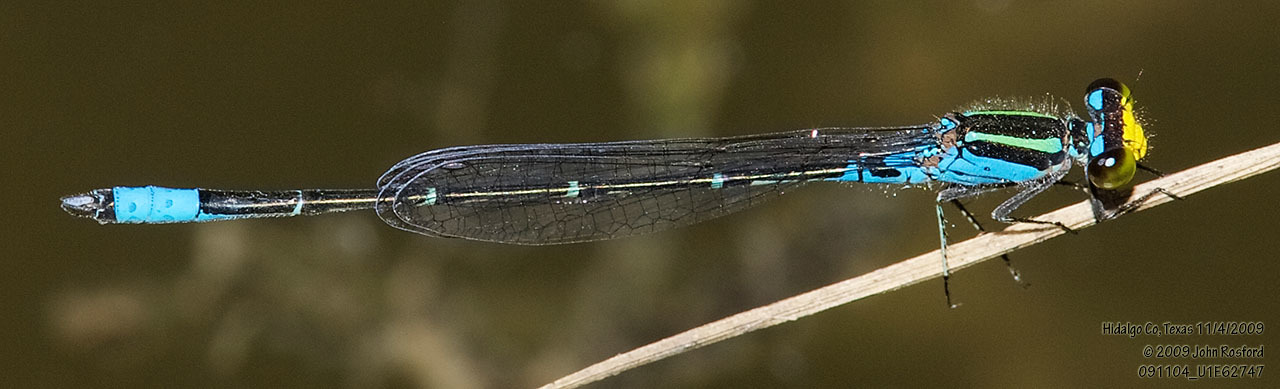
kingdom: Animalia
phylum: Arthropoda
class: Insecta
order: Odonata
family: Coenagrionidae
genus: Neoerythromma
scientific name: Neoerythromma cultellatum
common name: Caribbean yellowface
